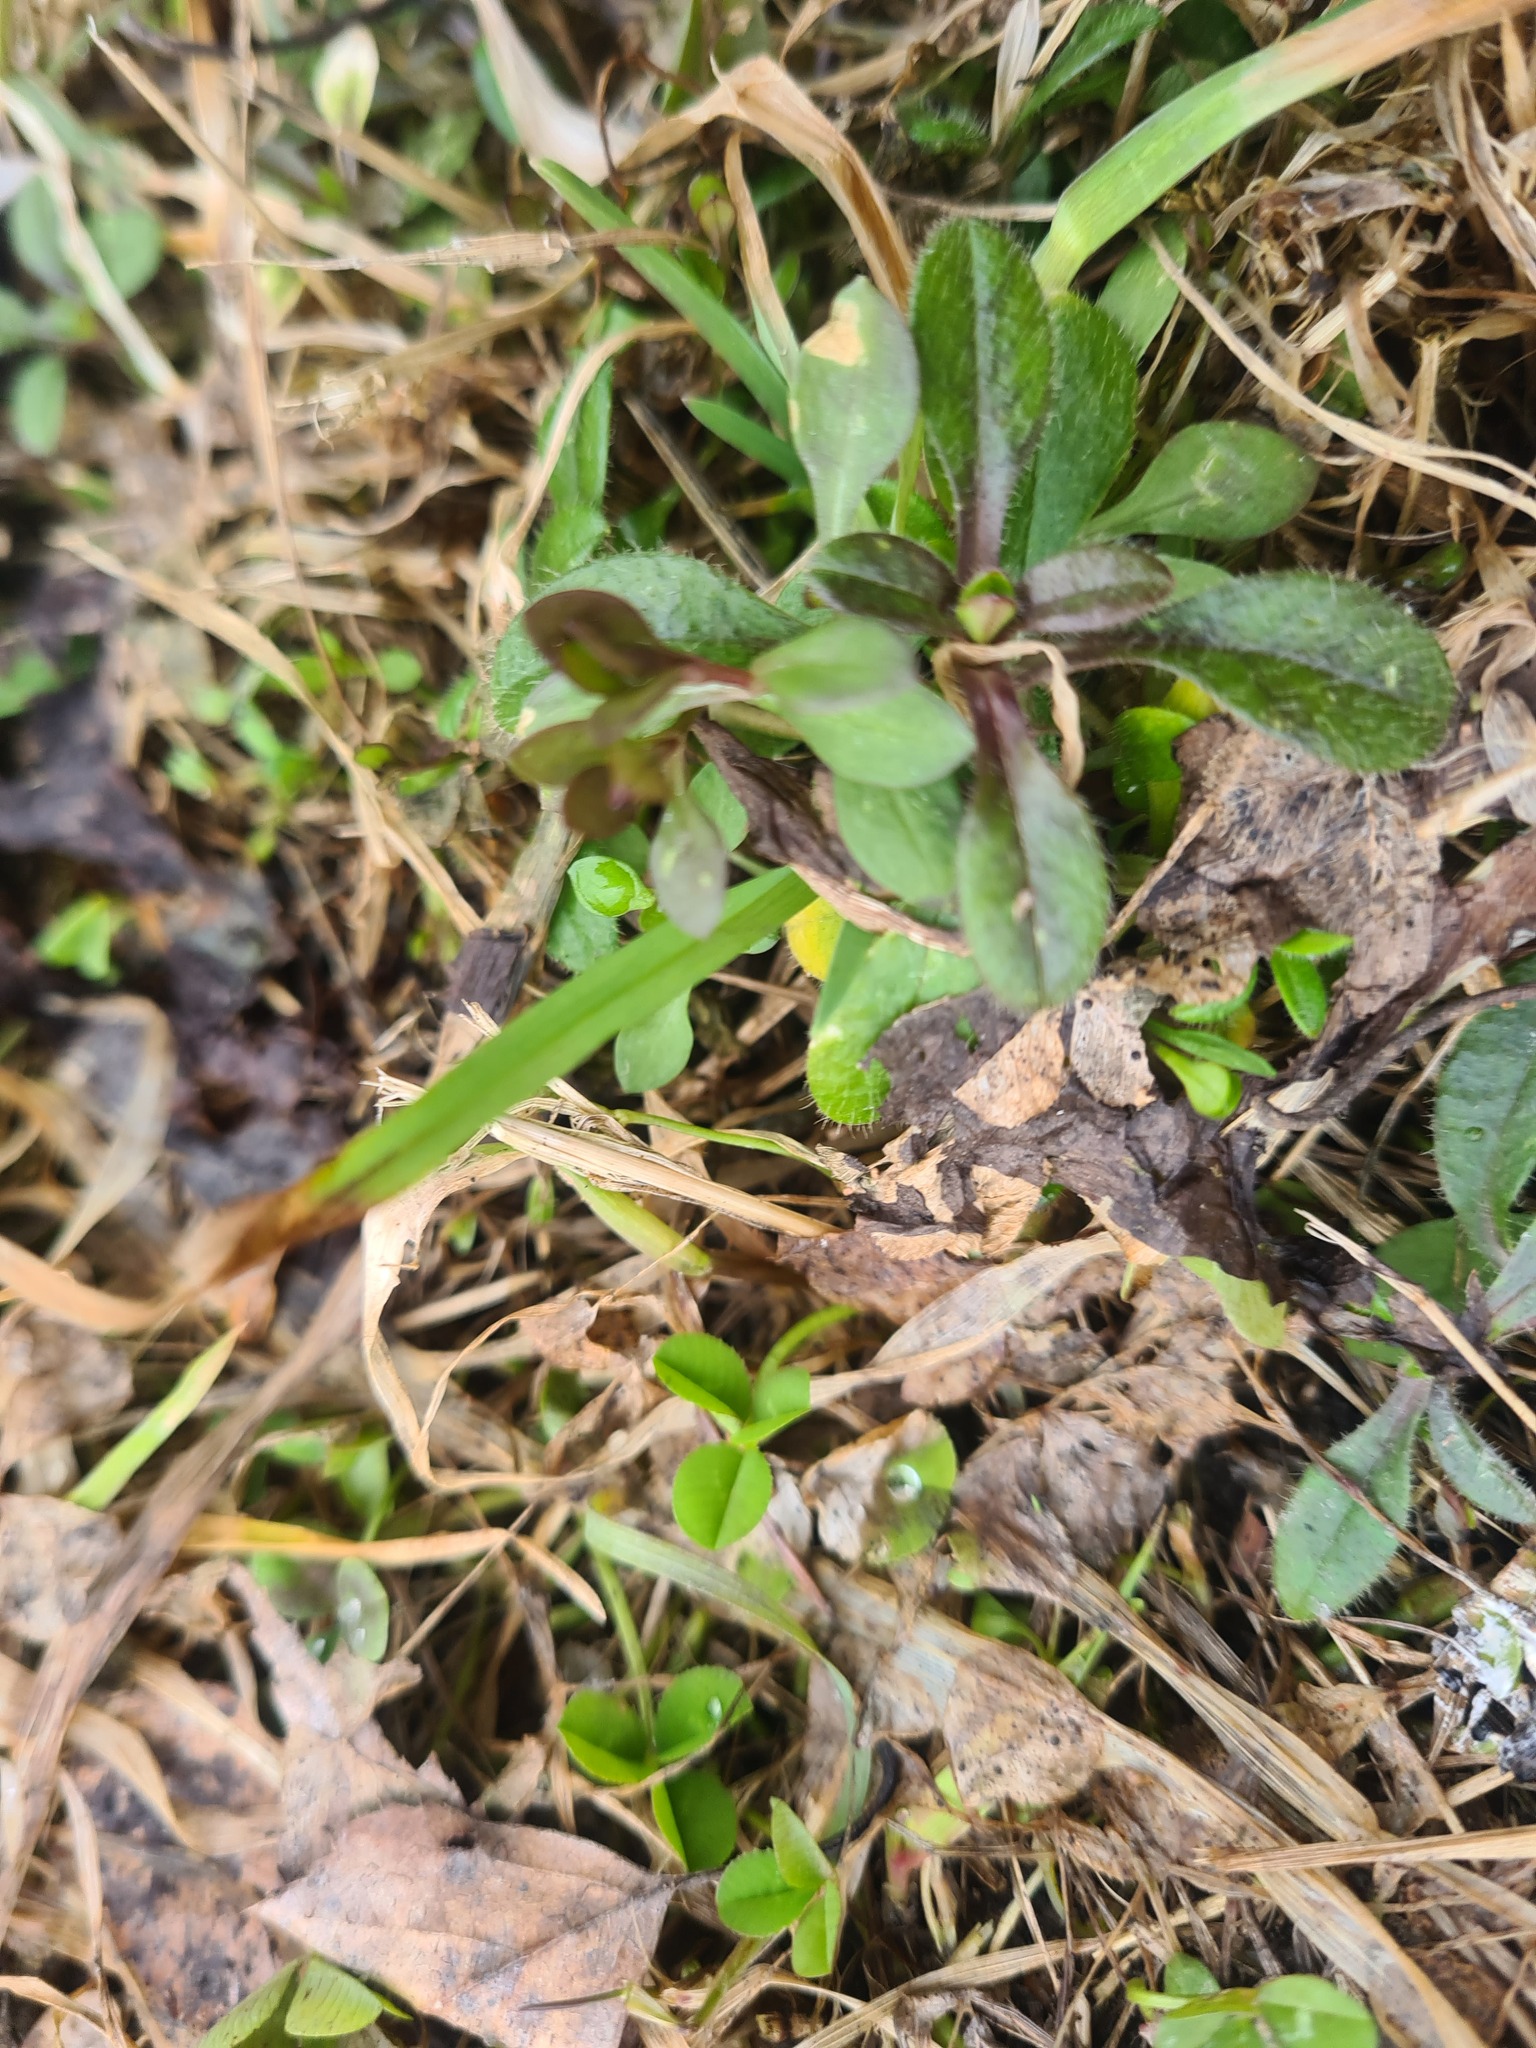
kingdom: Plantae
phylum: Tracheophyta
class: Magnoliopsida
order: Caryophyllales
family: Caryophyllaceae
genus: Cerastium
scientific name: Cerastium holosteoides
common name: Big chickweed
